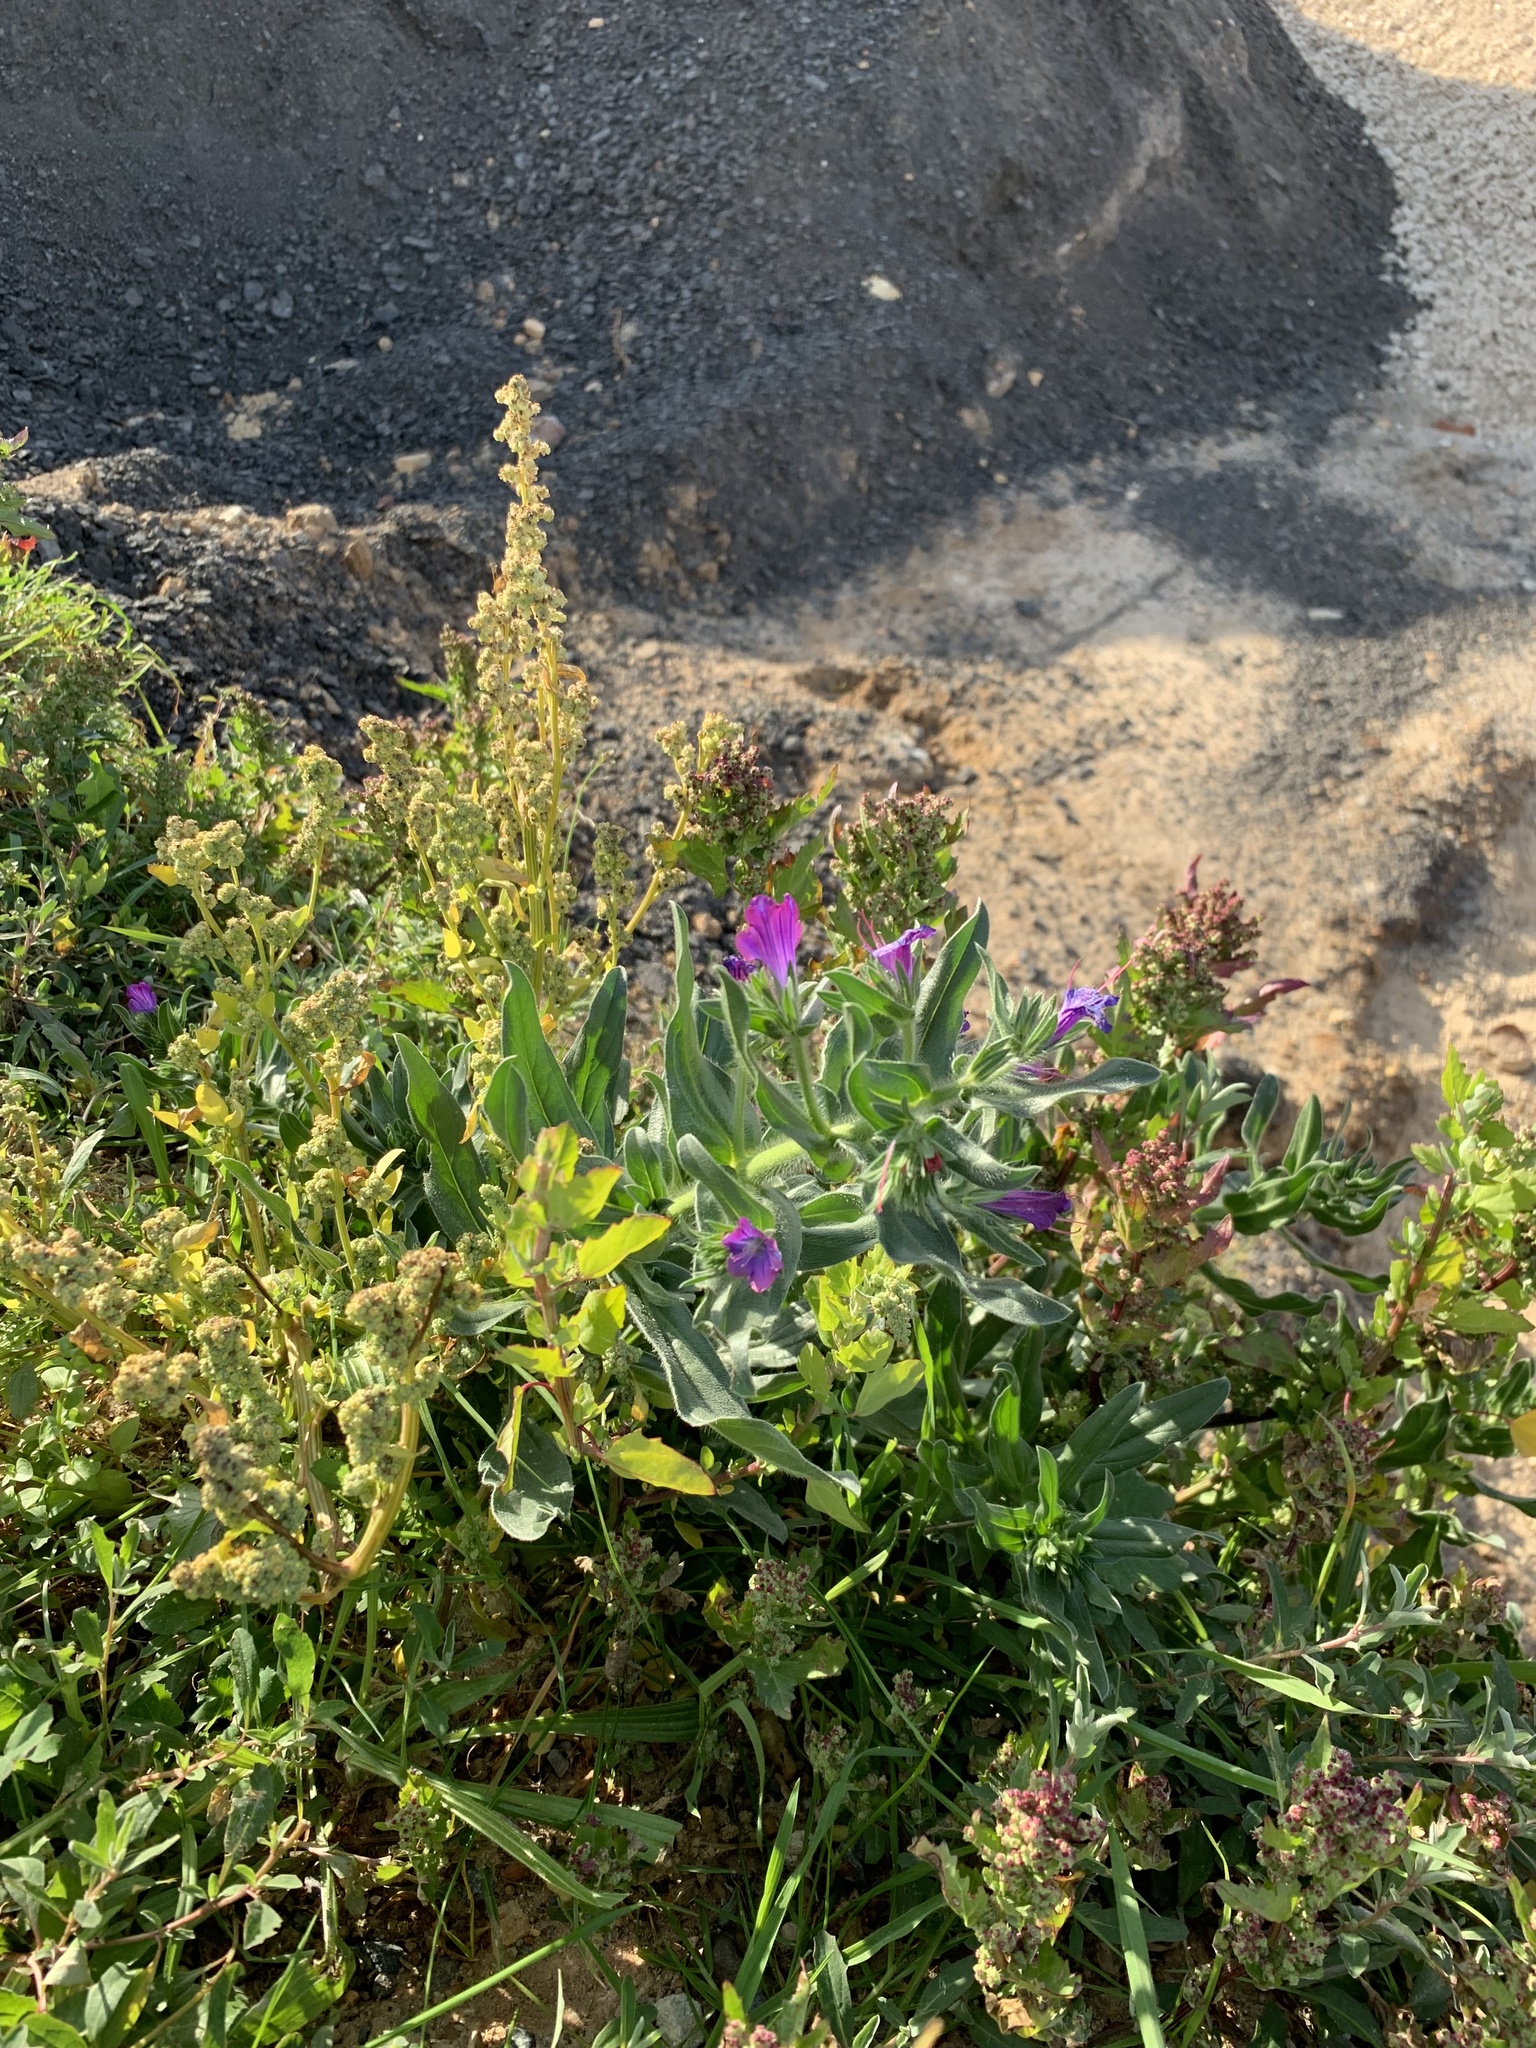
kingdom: Plantae
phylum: Tracheophyta
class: Magnoliopsida
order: Boraginales
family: Boraginaceae
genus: Echium
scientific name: Echium plantagineum
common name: Purple viper's-bugloss
